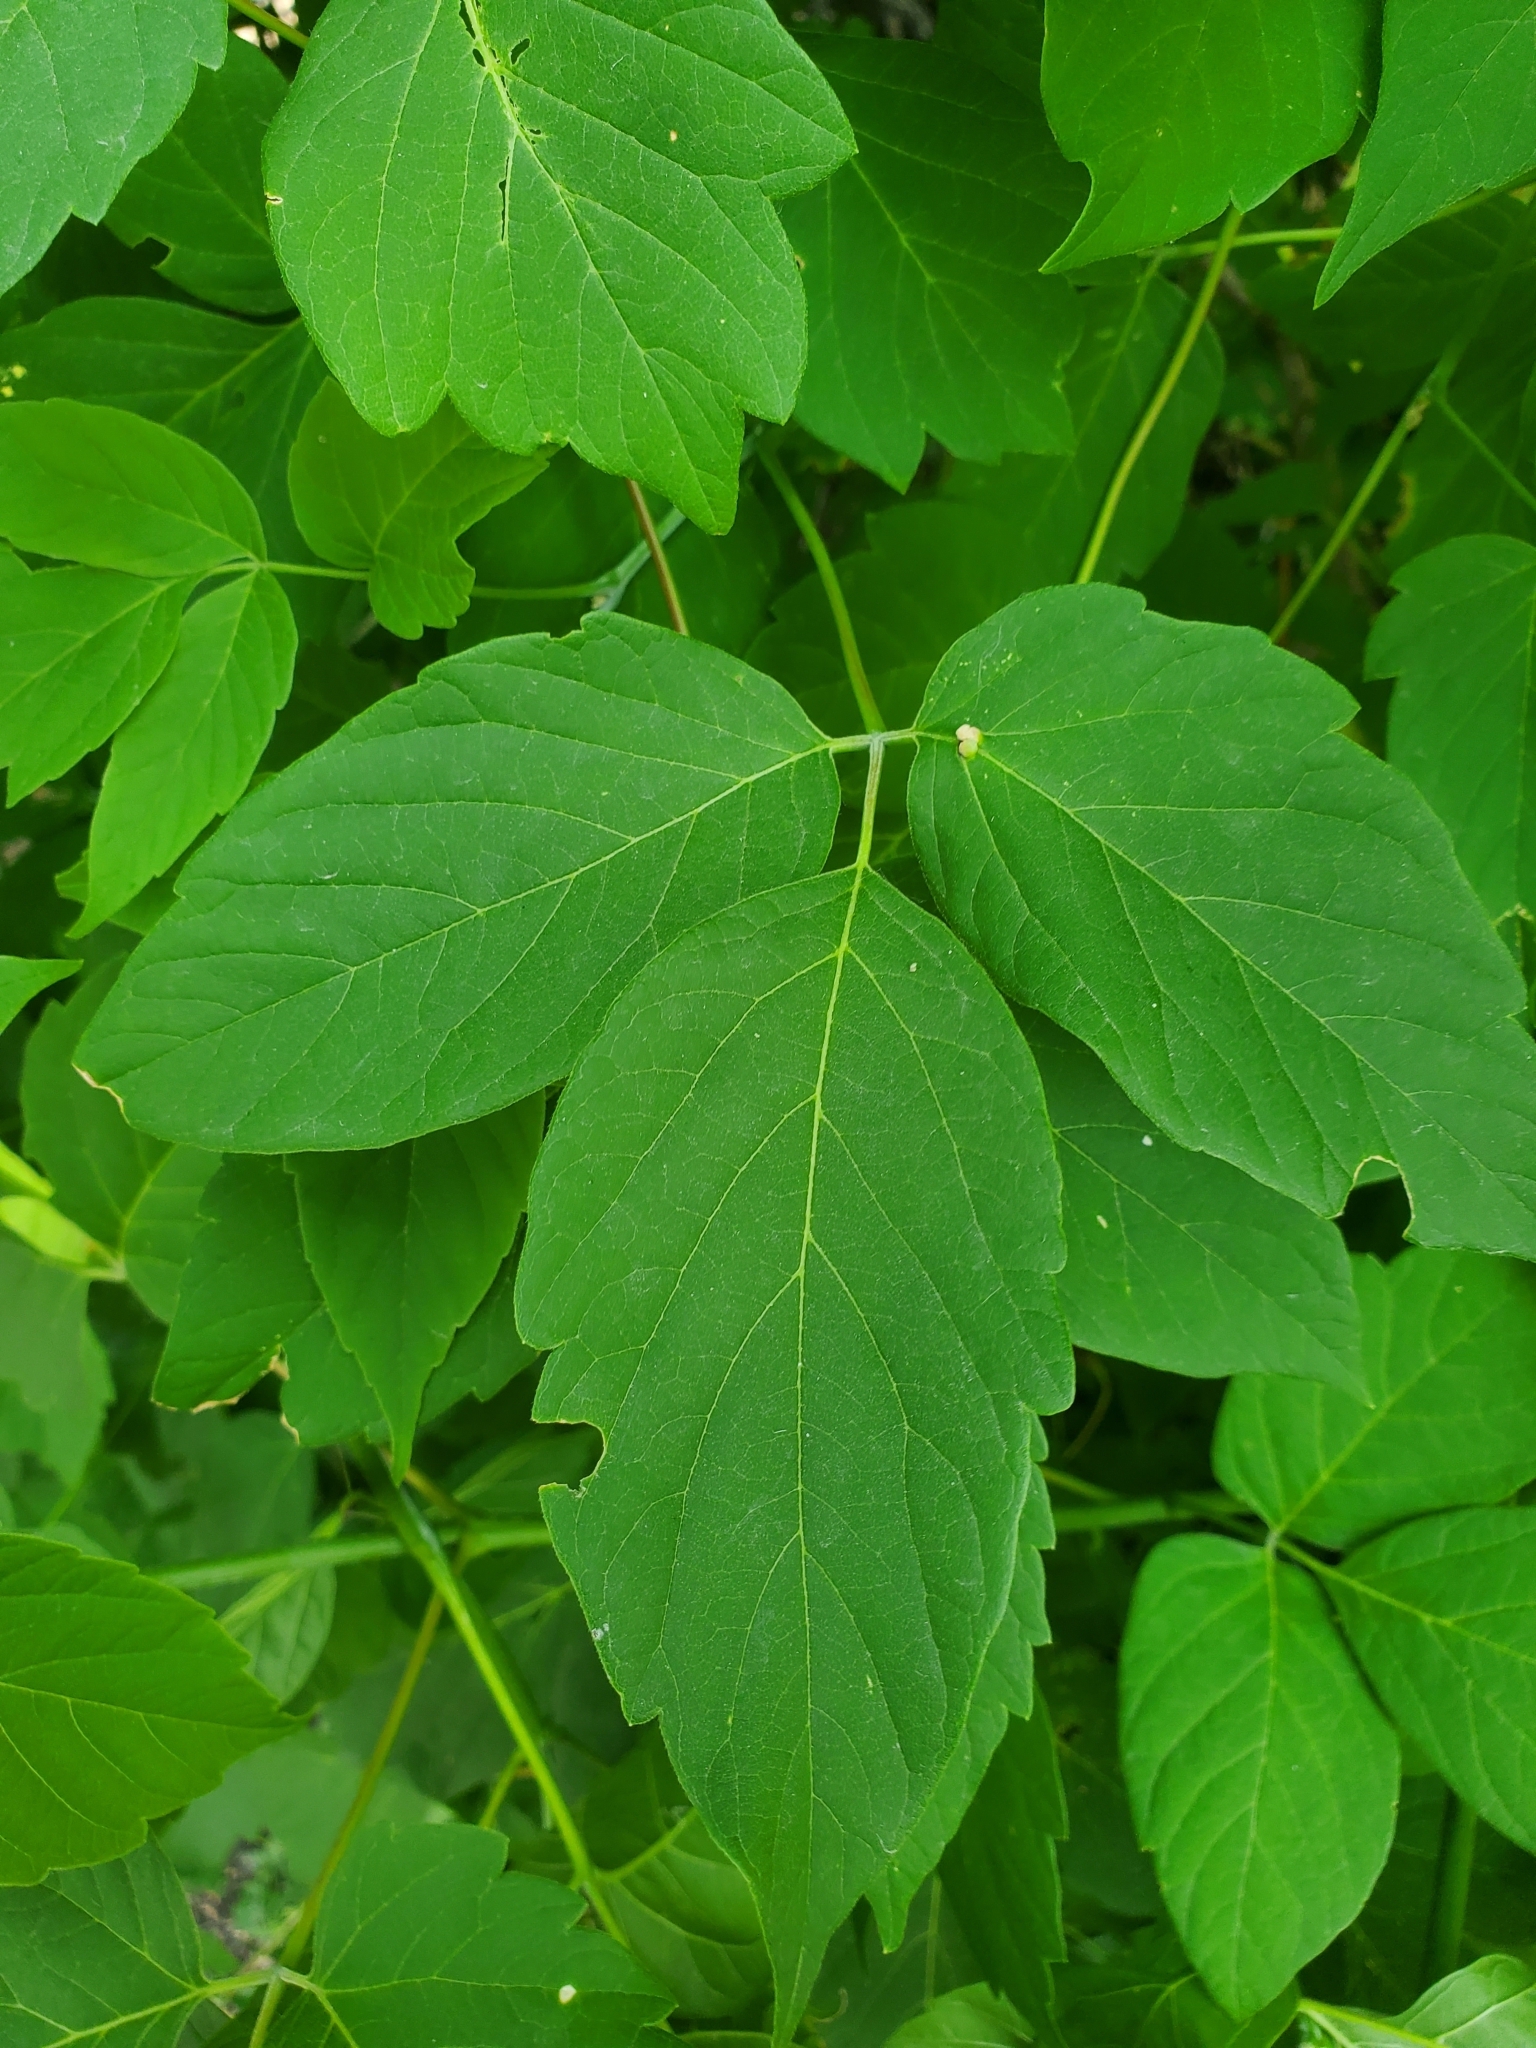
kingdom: Plantae
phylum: Tracheophyta
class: Magnoliopsida
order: Sapindales
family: Sapindaceae
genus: Acer
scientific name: Acer negundo
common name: Ashleaf maple
